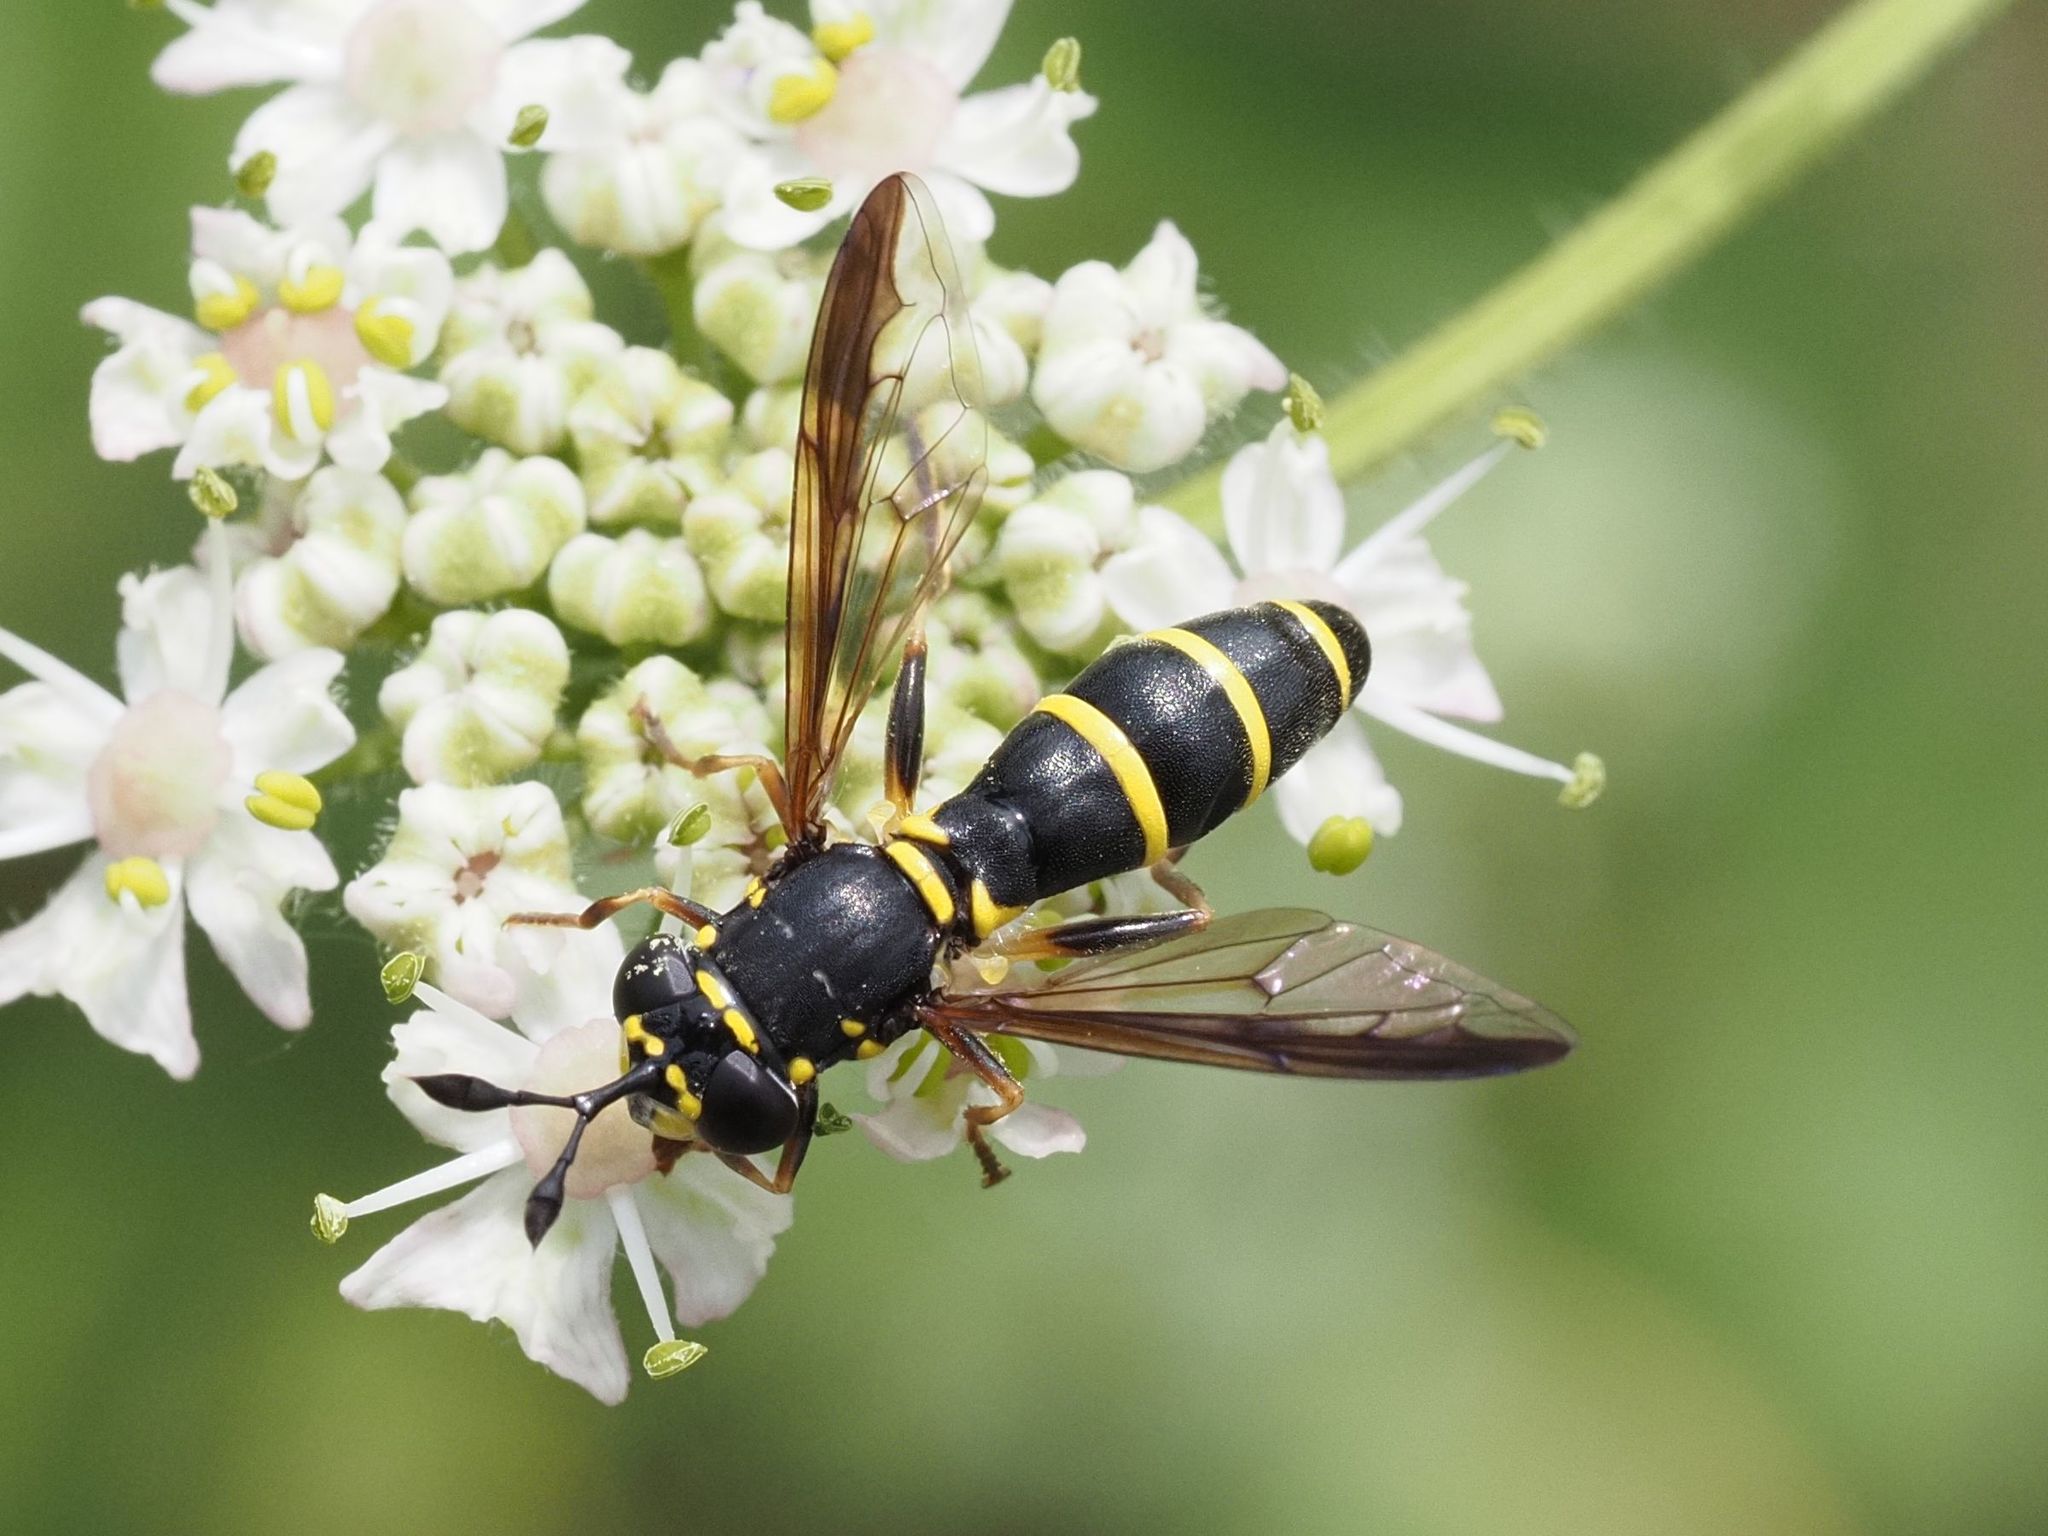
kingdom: Animalia
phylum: Arthropoda
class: Insecta
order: Diptera
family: Syrphidae
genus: Ceriana
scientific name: Ceriana conopsoides
